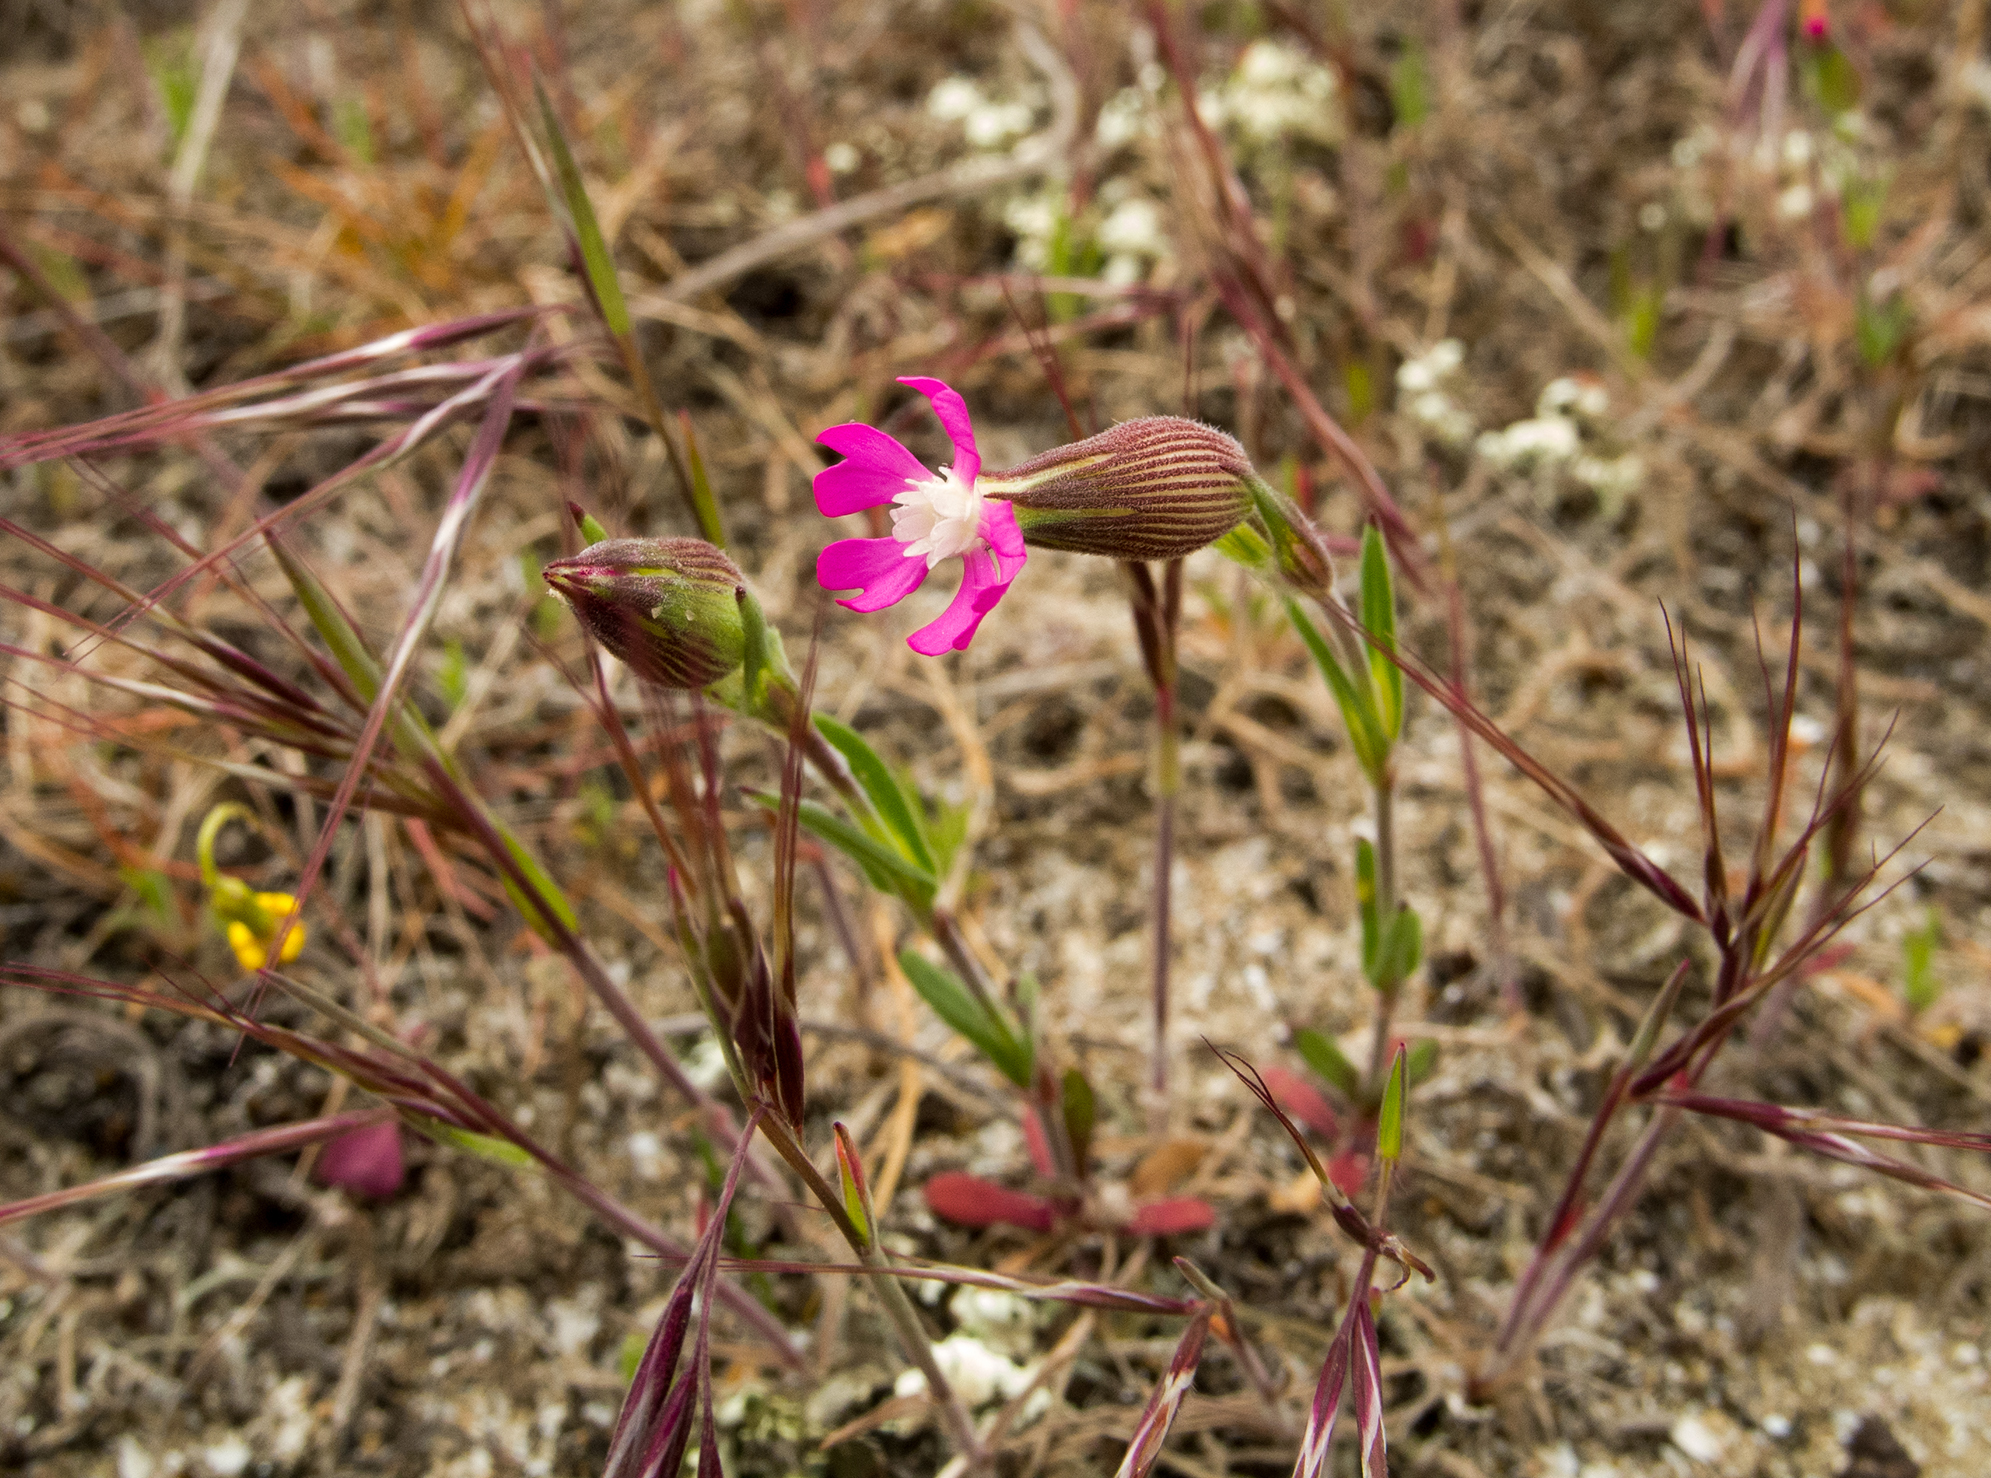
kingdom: Plantae
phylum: Tracheophyta
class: Magnoliopsida
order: Caryophyllales
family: Caryophyllaceae
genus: Silene
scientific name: Silene conica
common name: Sand catchfly
